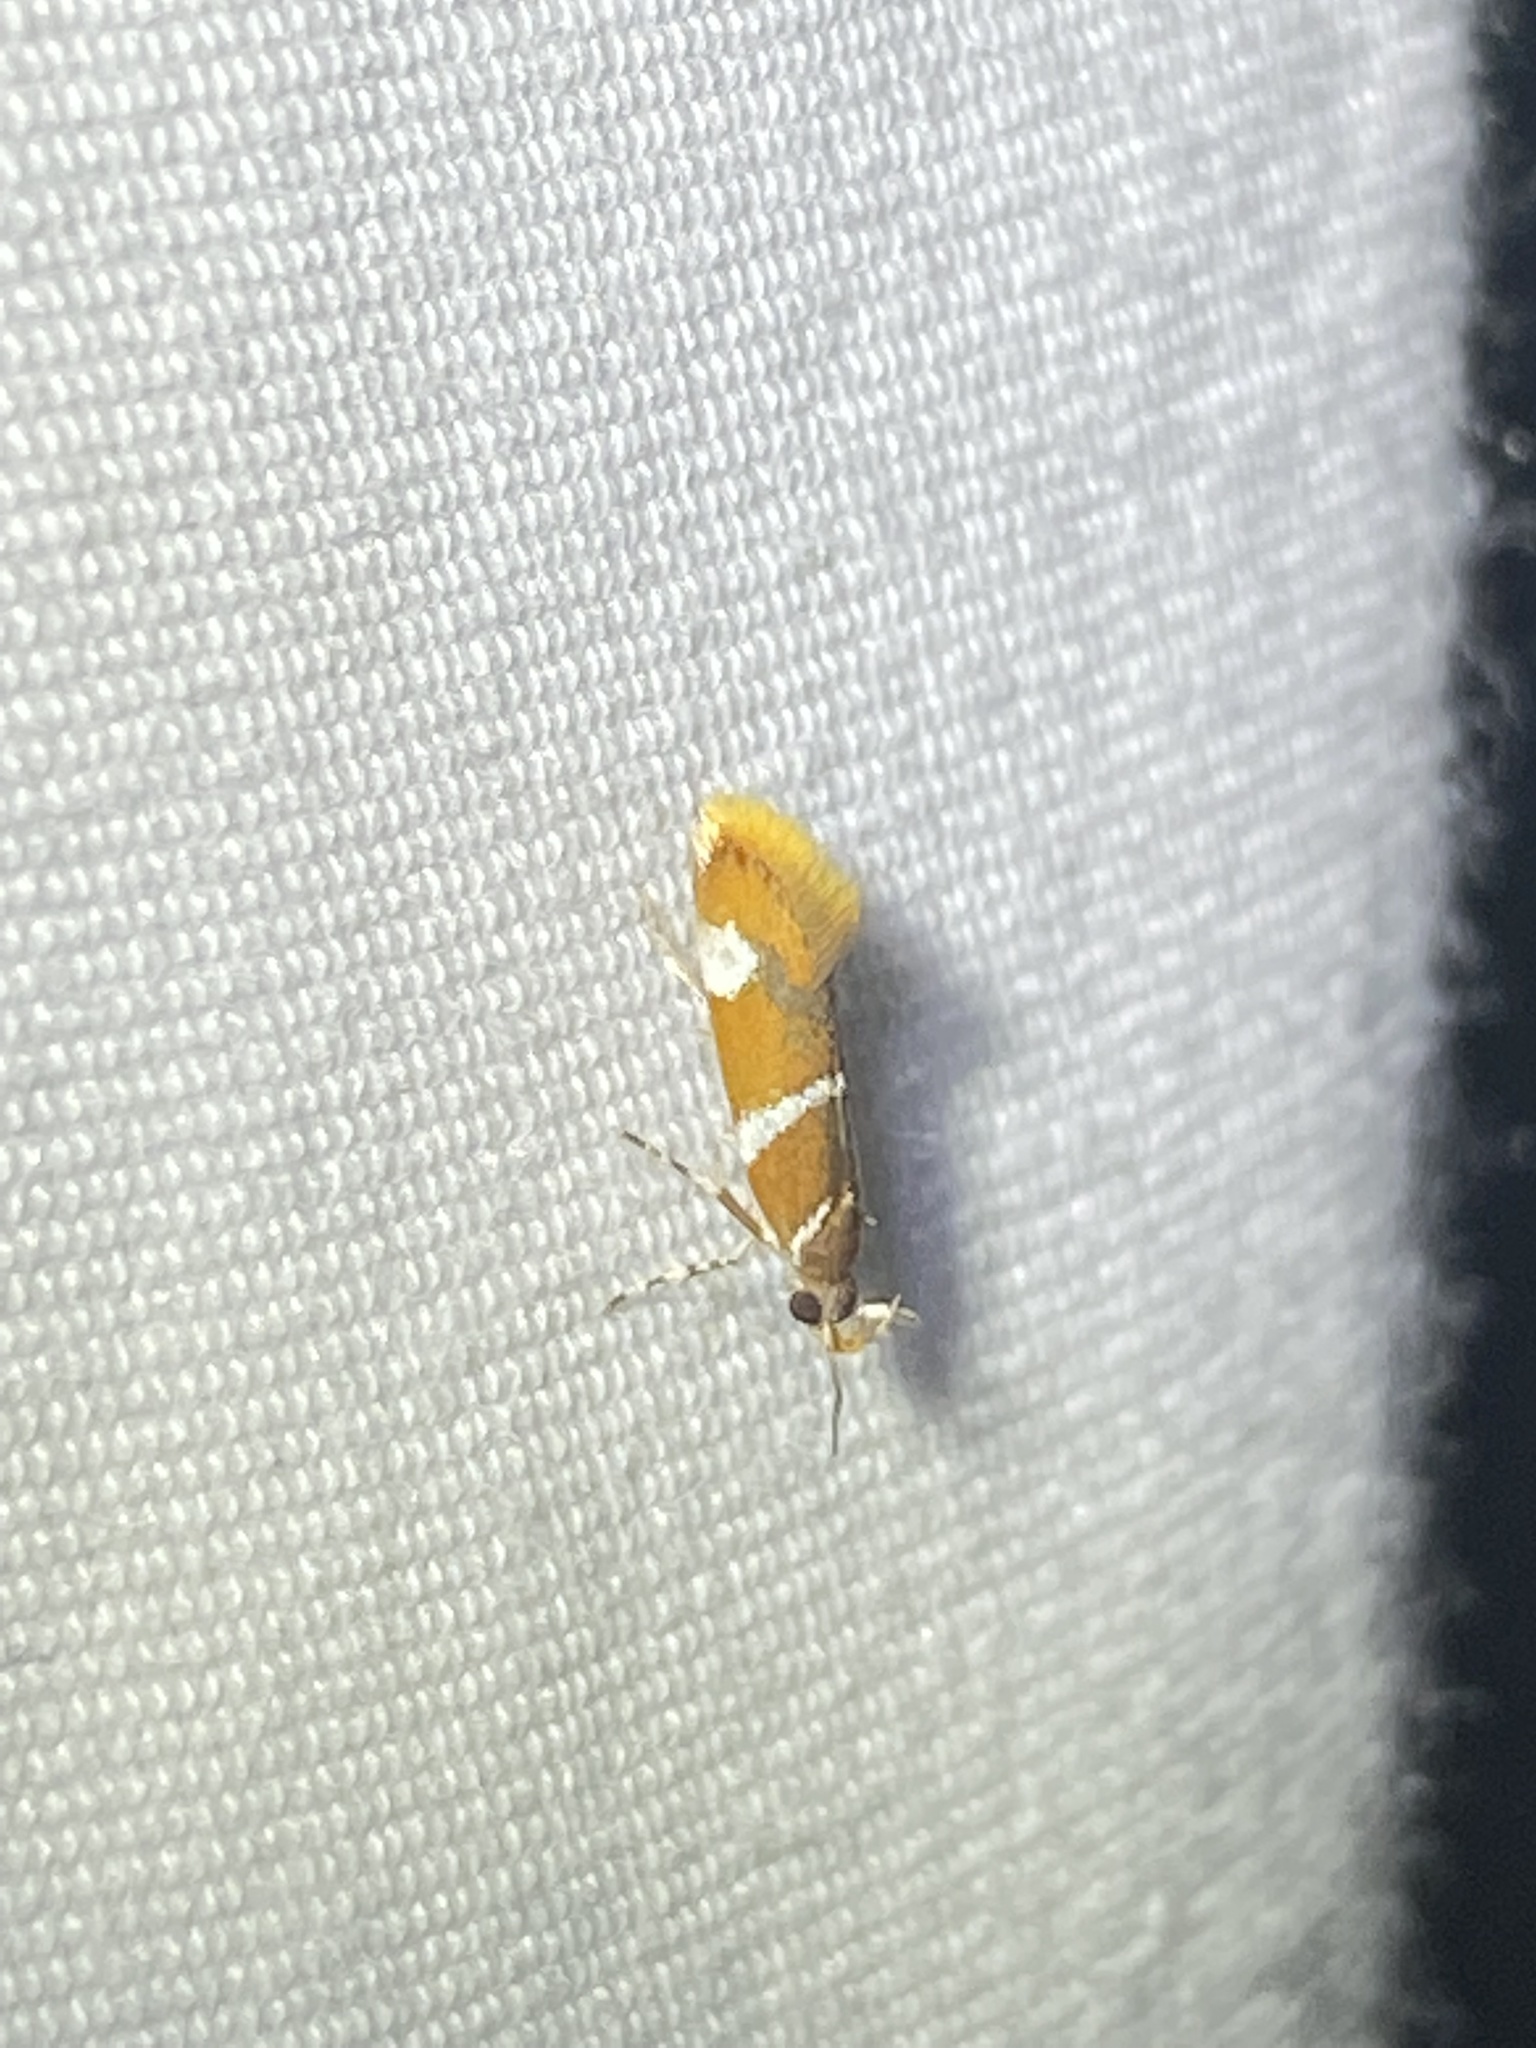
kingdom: Animalia
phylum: Arthropoda
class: Insecta
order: Lepidoptera
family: Oecophoridae
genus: Promalactis
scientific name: Promalactis suzukiella
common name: Moth
